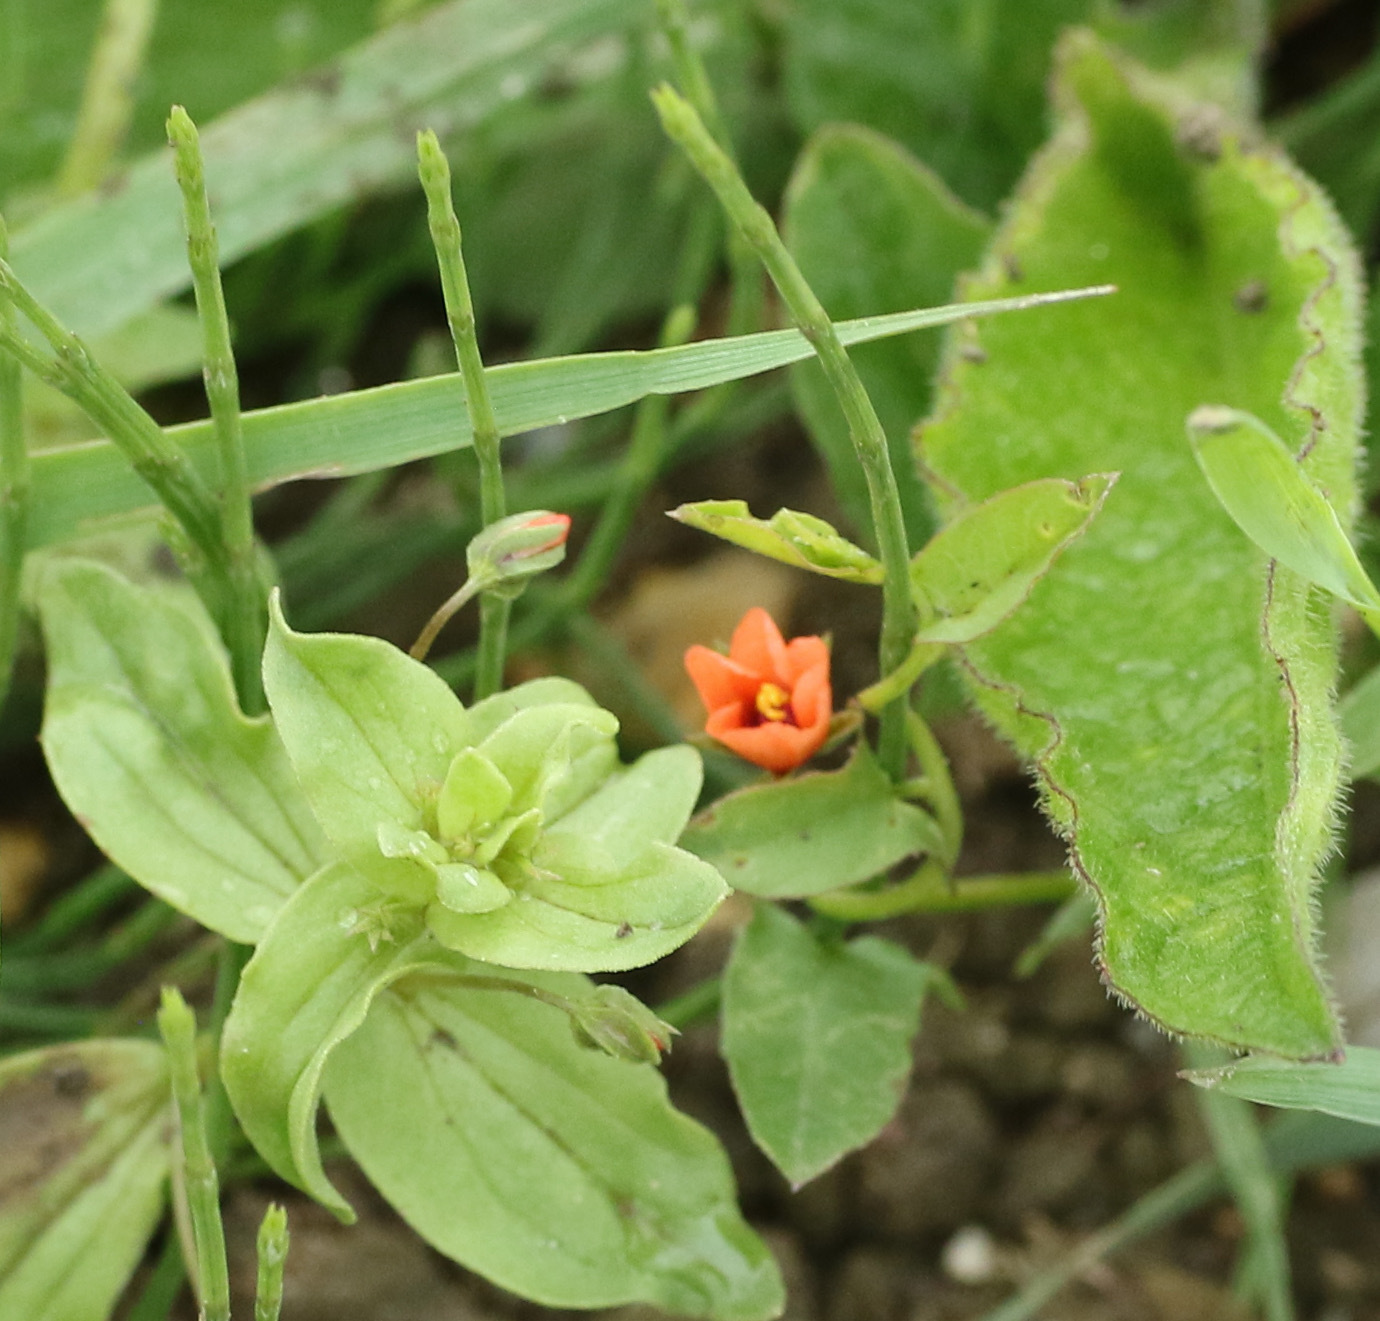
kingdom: Plantae
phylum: Tracheophyta
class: Magnoliopsida
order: Ericales
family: Primulaceae
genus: Lysimachia
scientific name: Lysimachia arvensis
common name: Scarlet pimpernel
